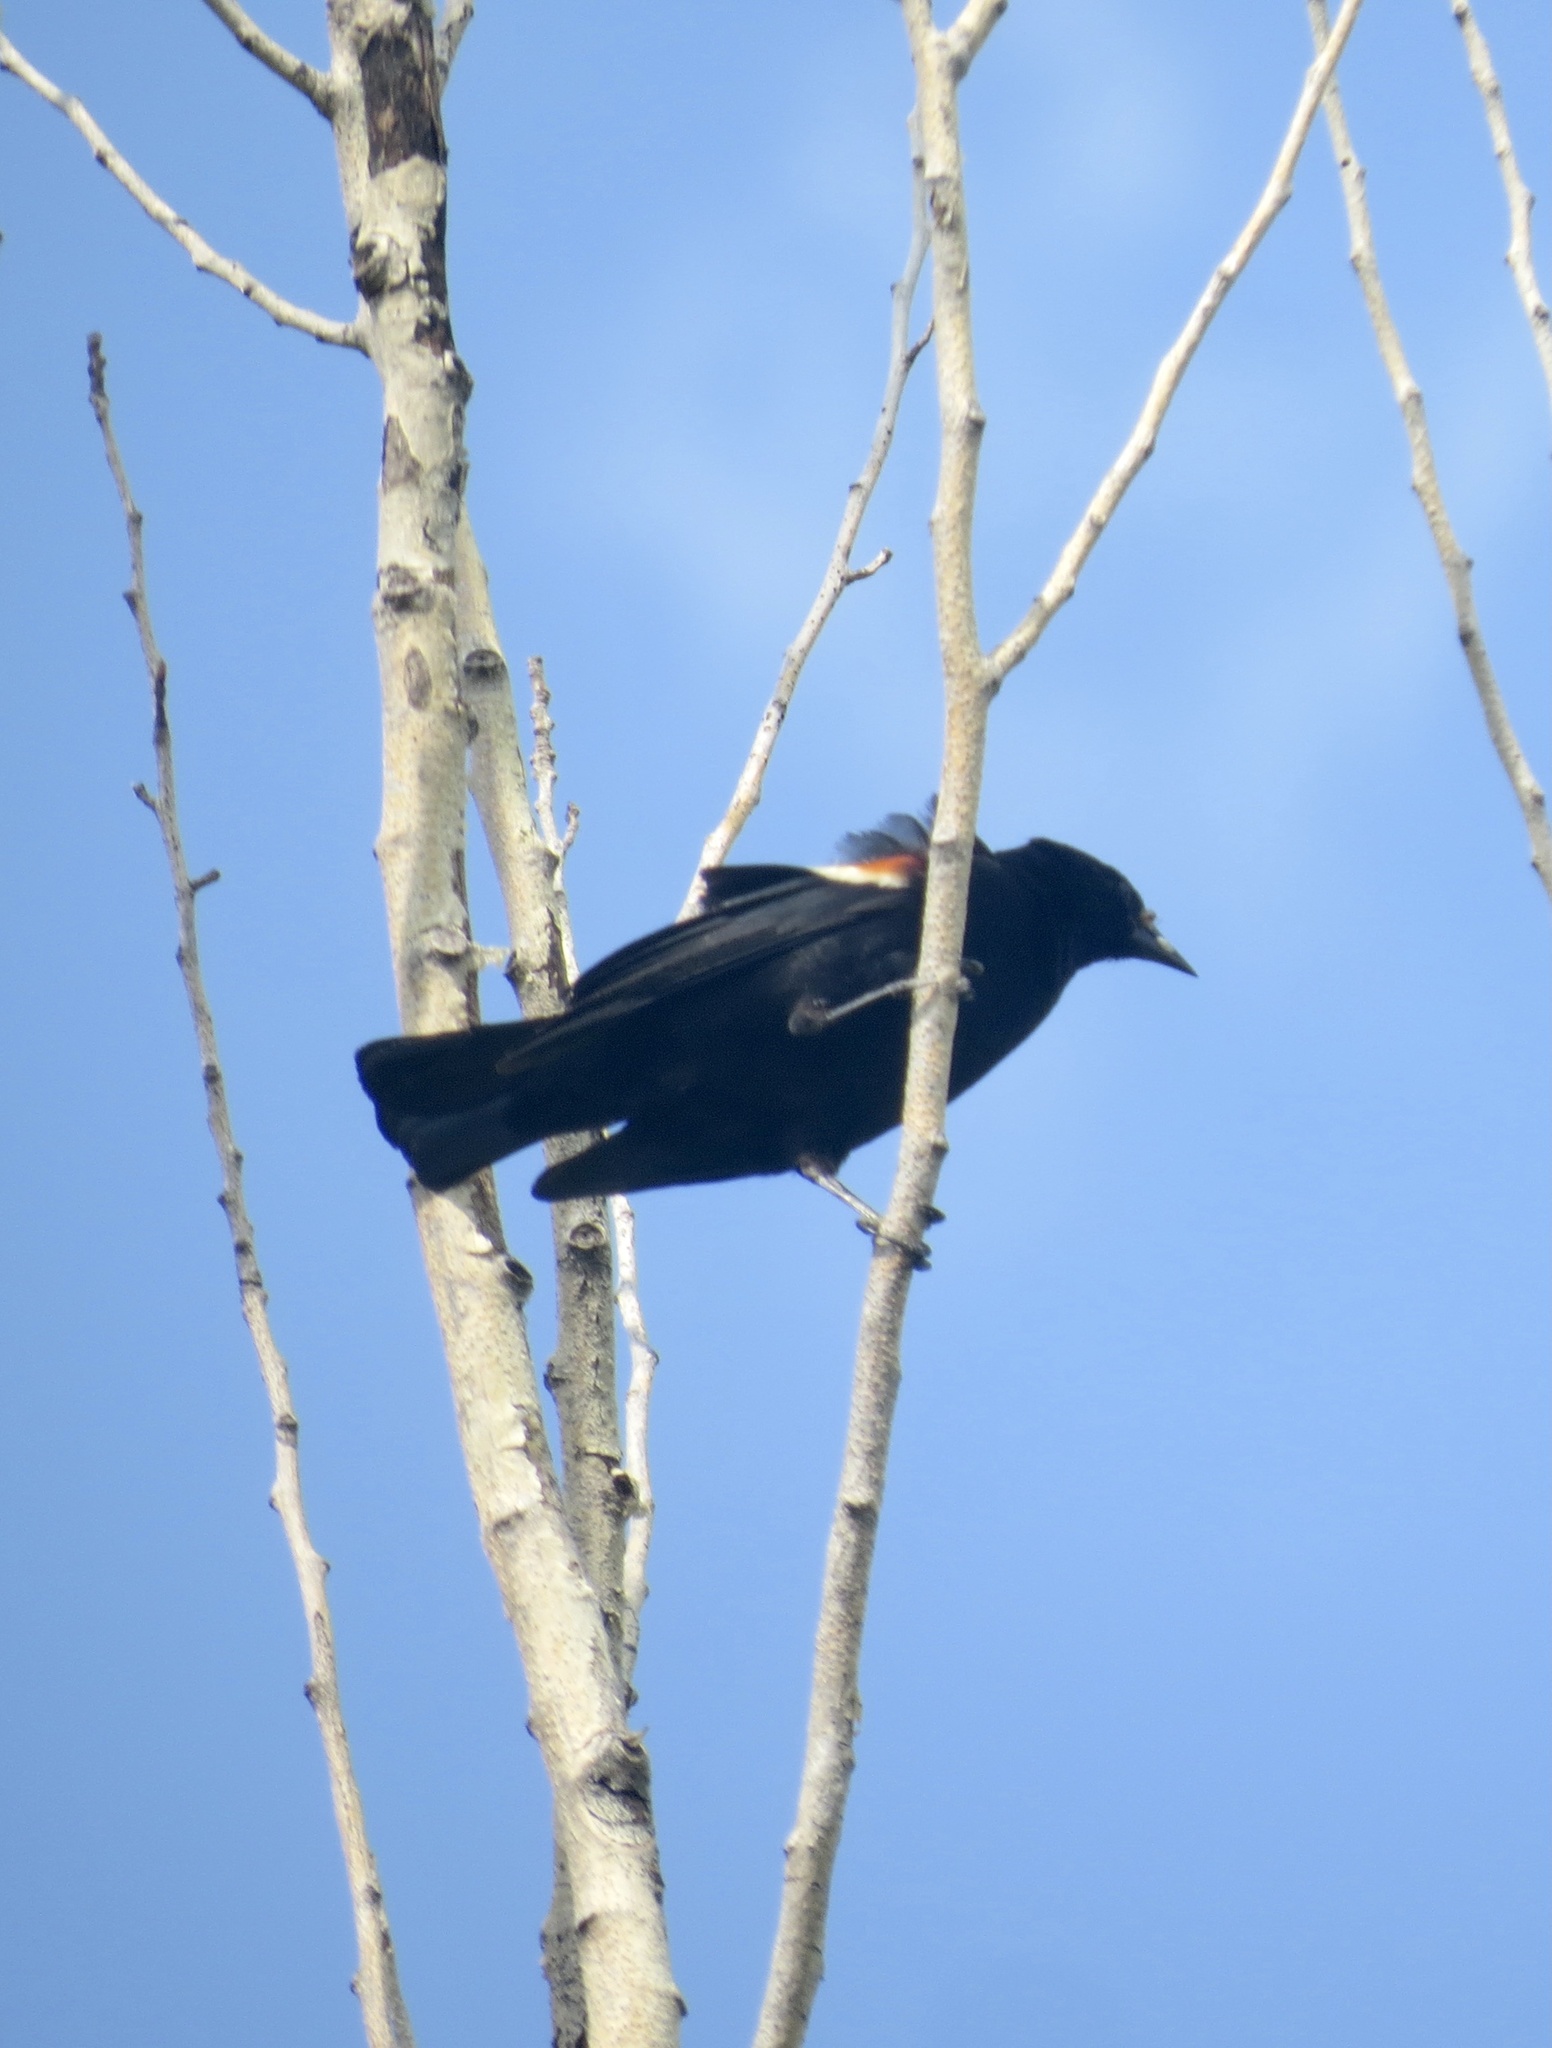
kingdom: Animalia
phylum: Chordata
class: Aves
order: Passeriformes
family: Icteridae
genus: Agelaius
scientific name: Agelaius phoeniceus
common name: Red-winged blackbird
